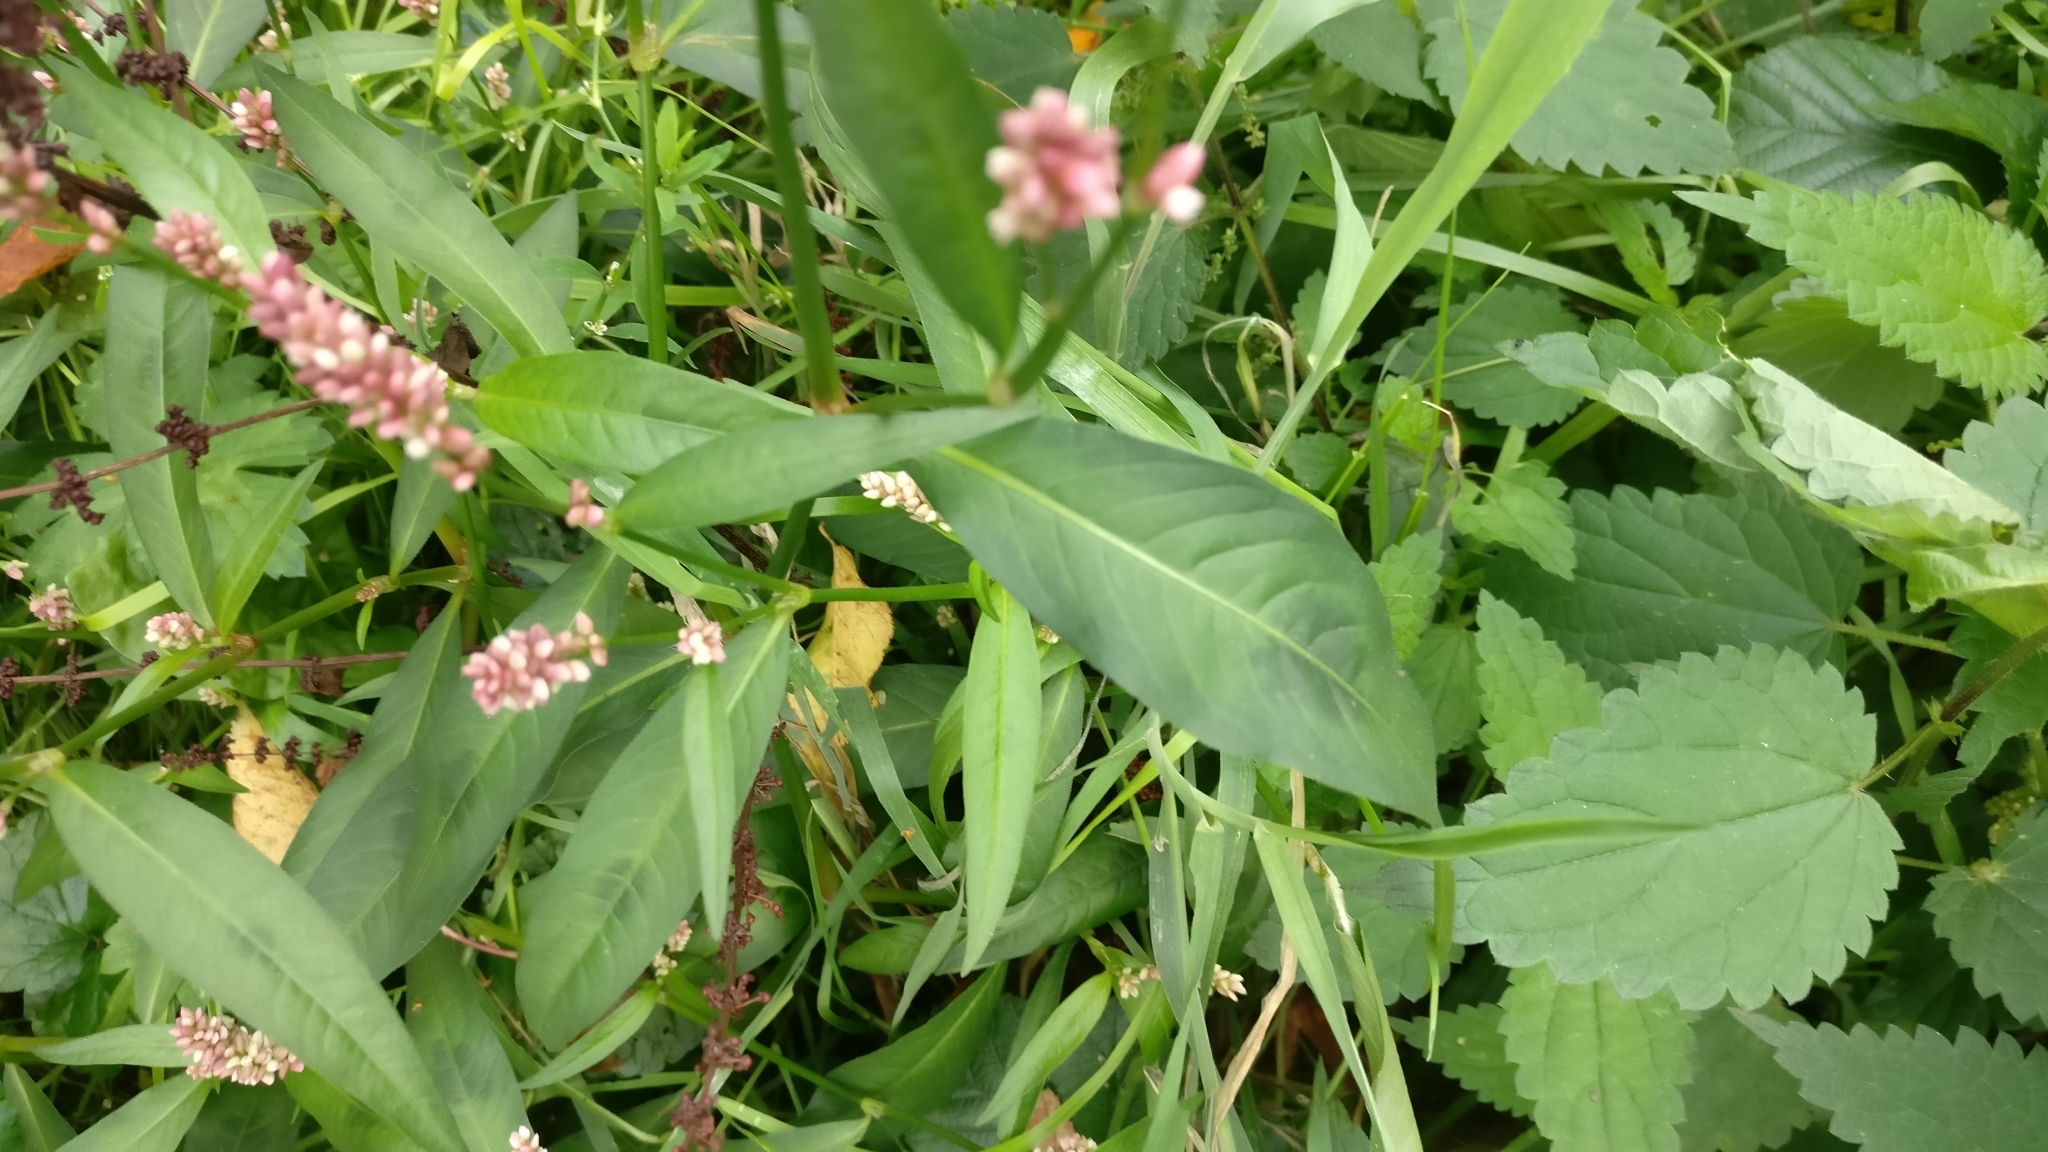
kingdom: Plantae
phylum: Tracheophyta
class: Magnoliopsida
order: Caryophyllales
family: Polygonaceae
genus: Persicaria
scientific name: Persicaria maculosa
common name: Redshank
